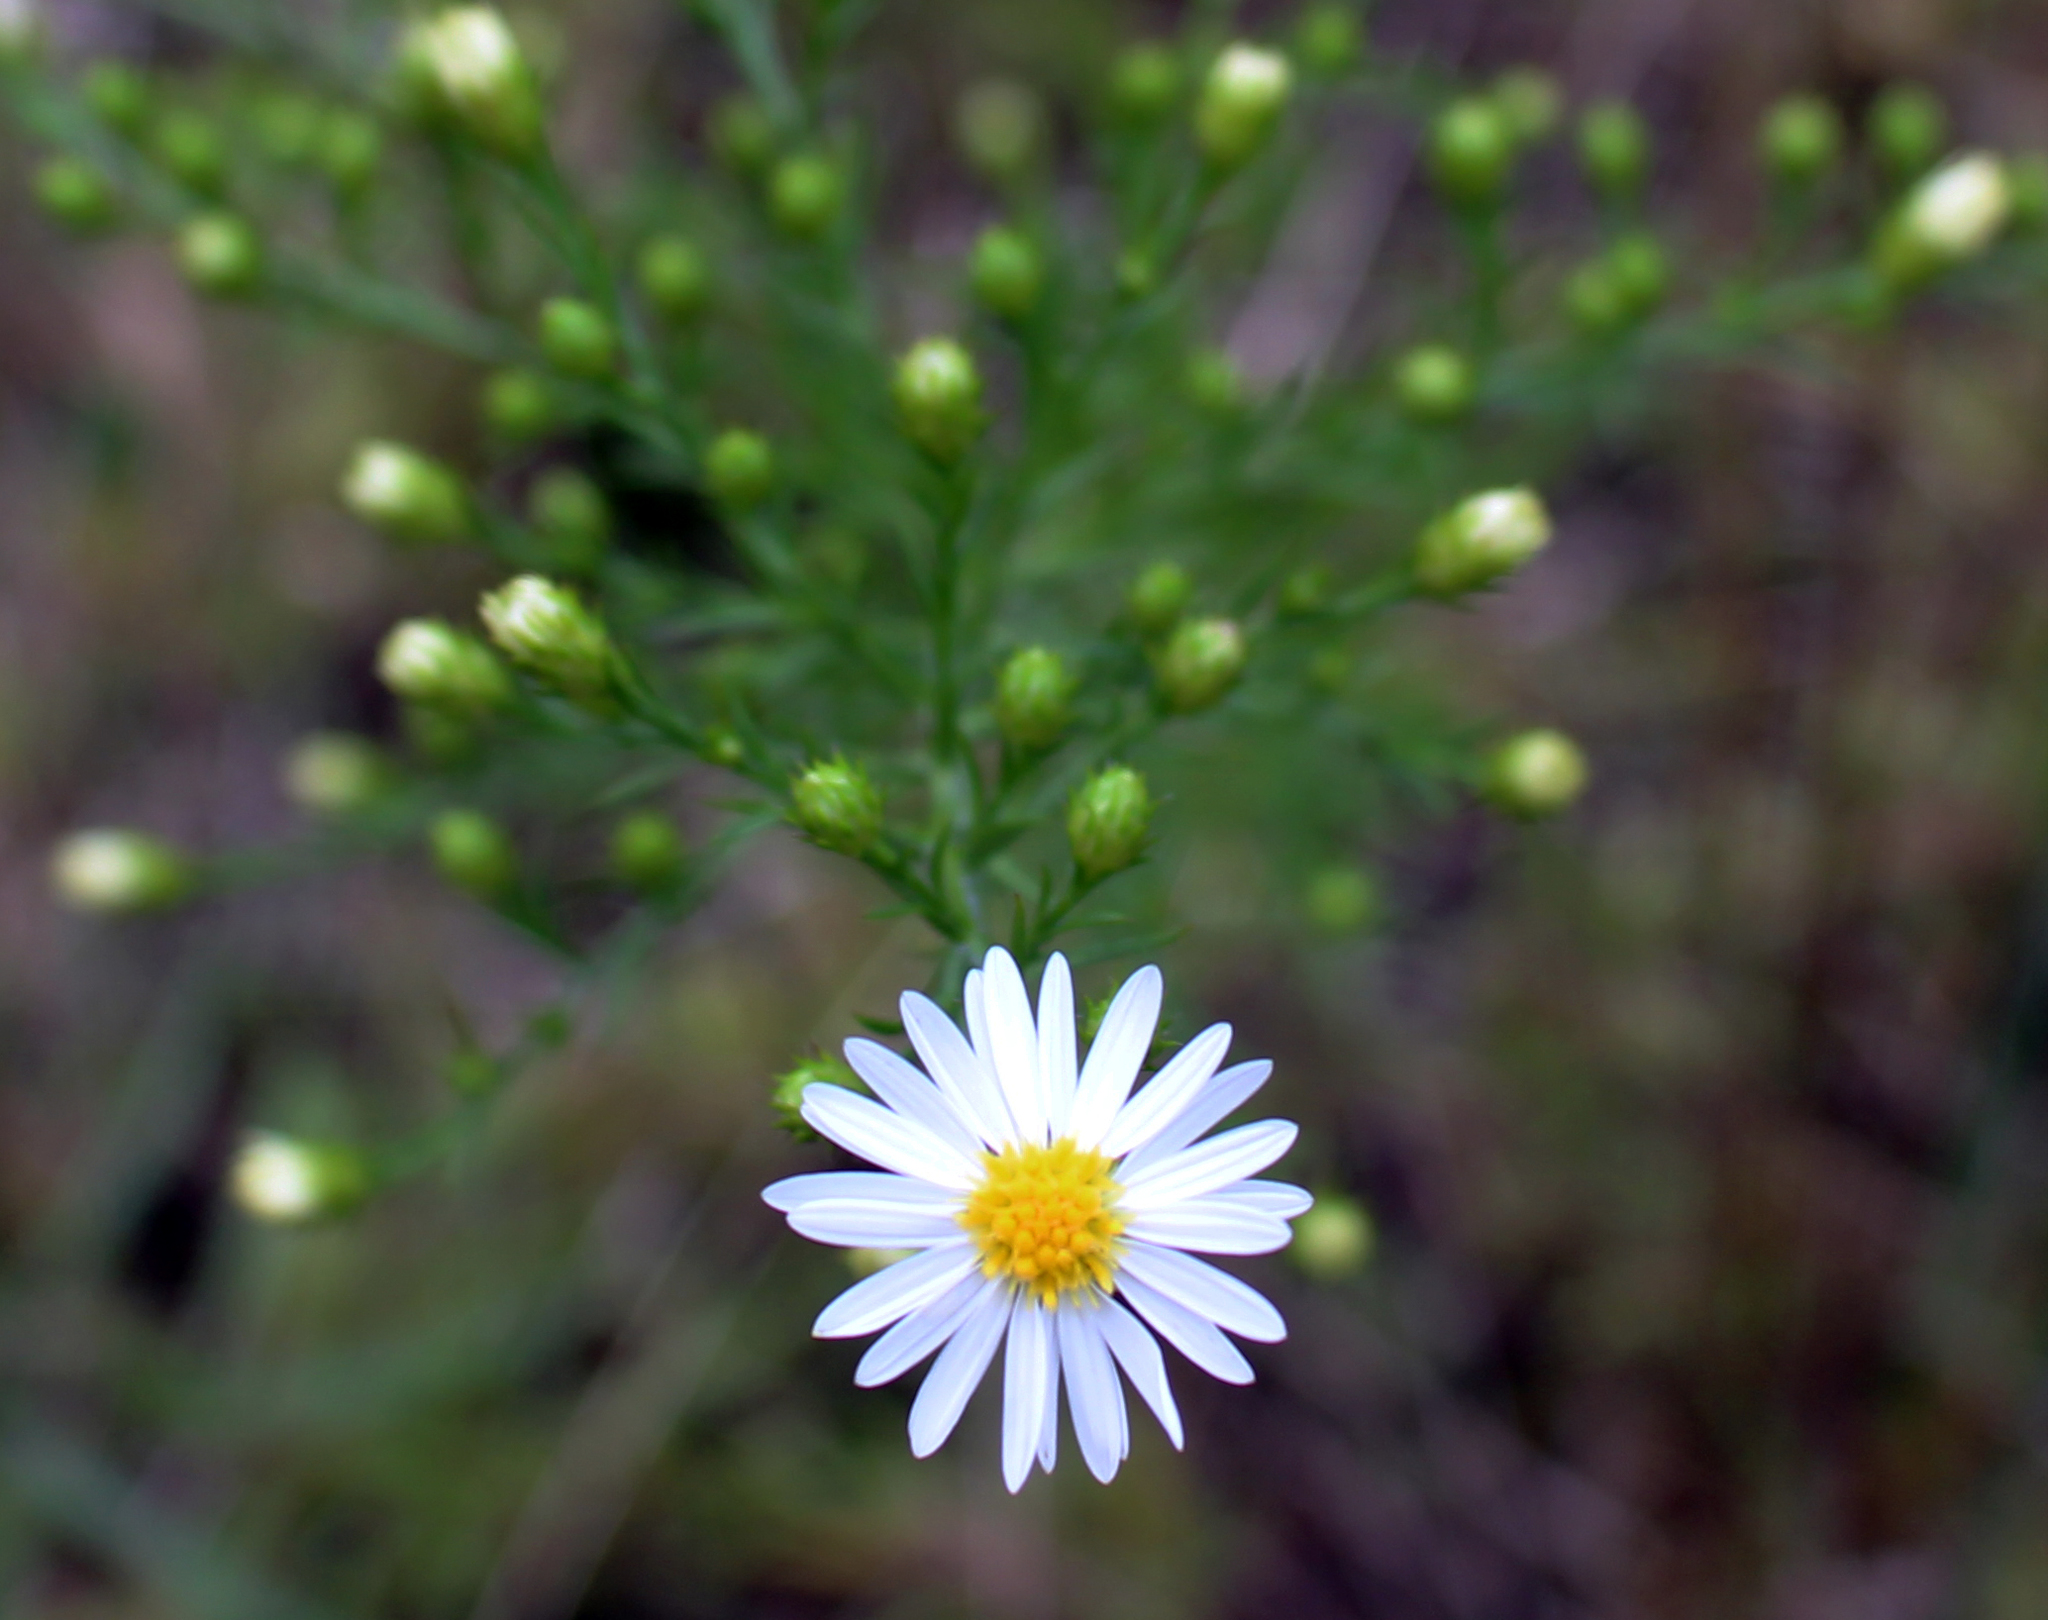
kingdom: Plantae
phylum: Tracheophyta
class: Magnoliopsida
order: Asterales
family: Asteraceae
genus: Symphyotrichum
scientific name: Symphyotrichum pilosum
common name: Awl aster
